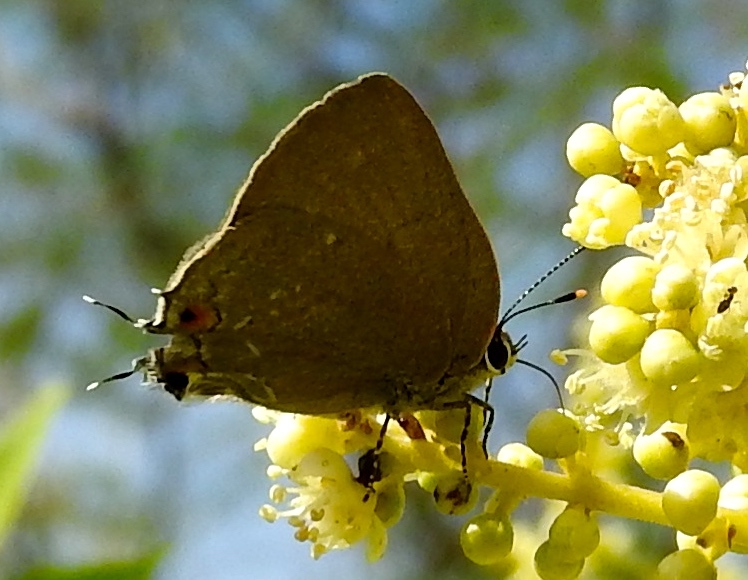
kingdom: Animalia
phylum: Arthropoda
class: Insecta
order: Lepidoptera
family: Lycaenidae
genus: Ostrinotes
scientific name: Ostrinotes halciones
